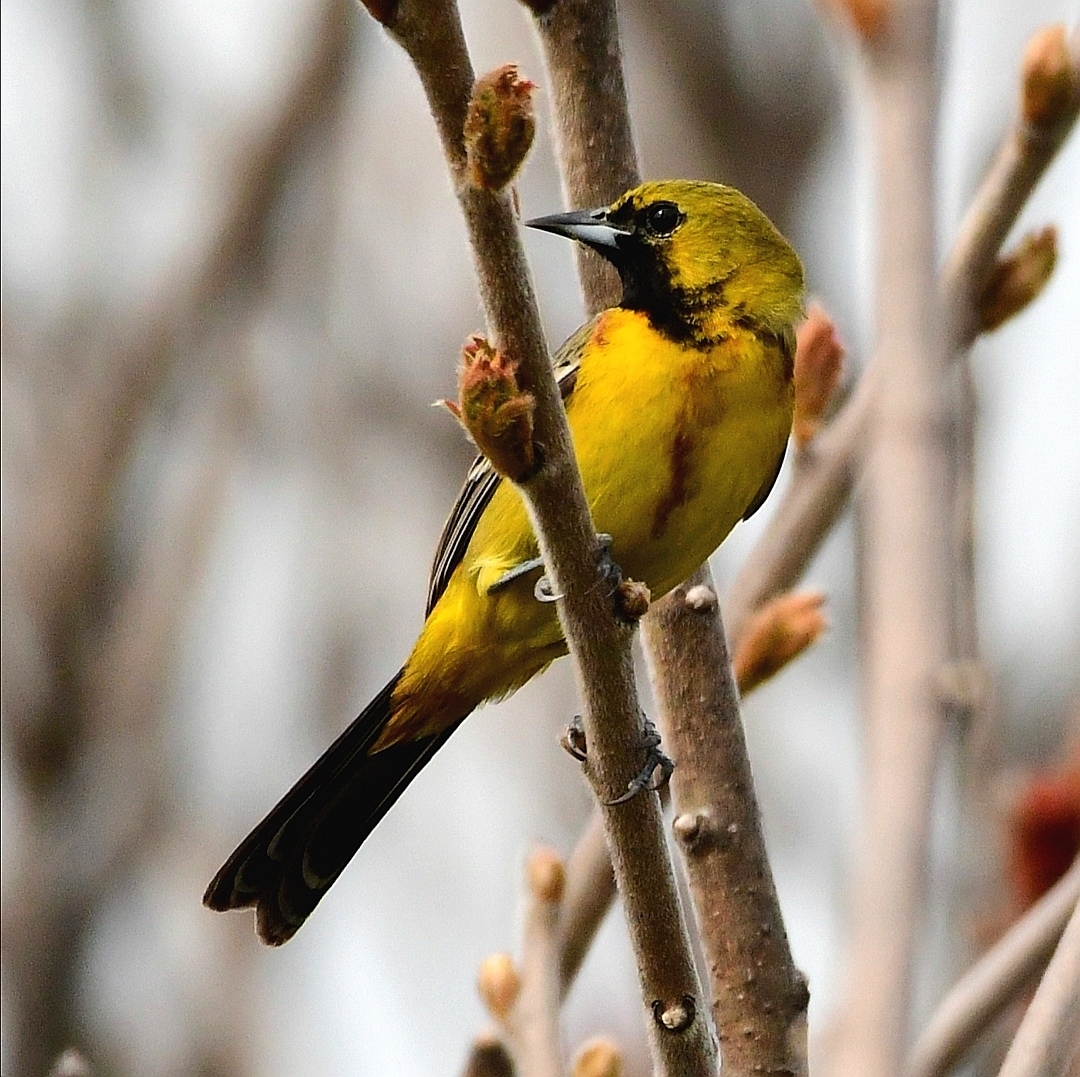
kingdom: Animalia
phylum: Chordata
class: Aves
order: Passeriformes
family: Icteridae
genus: Icterus
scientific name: Icterus spurius
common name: Orchard oriole
